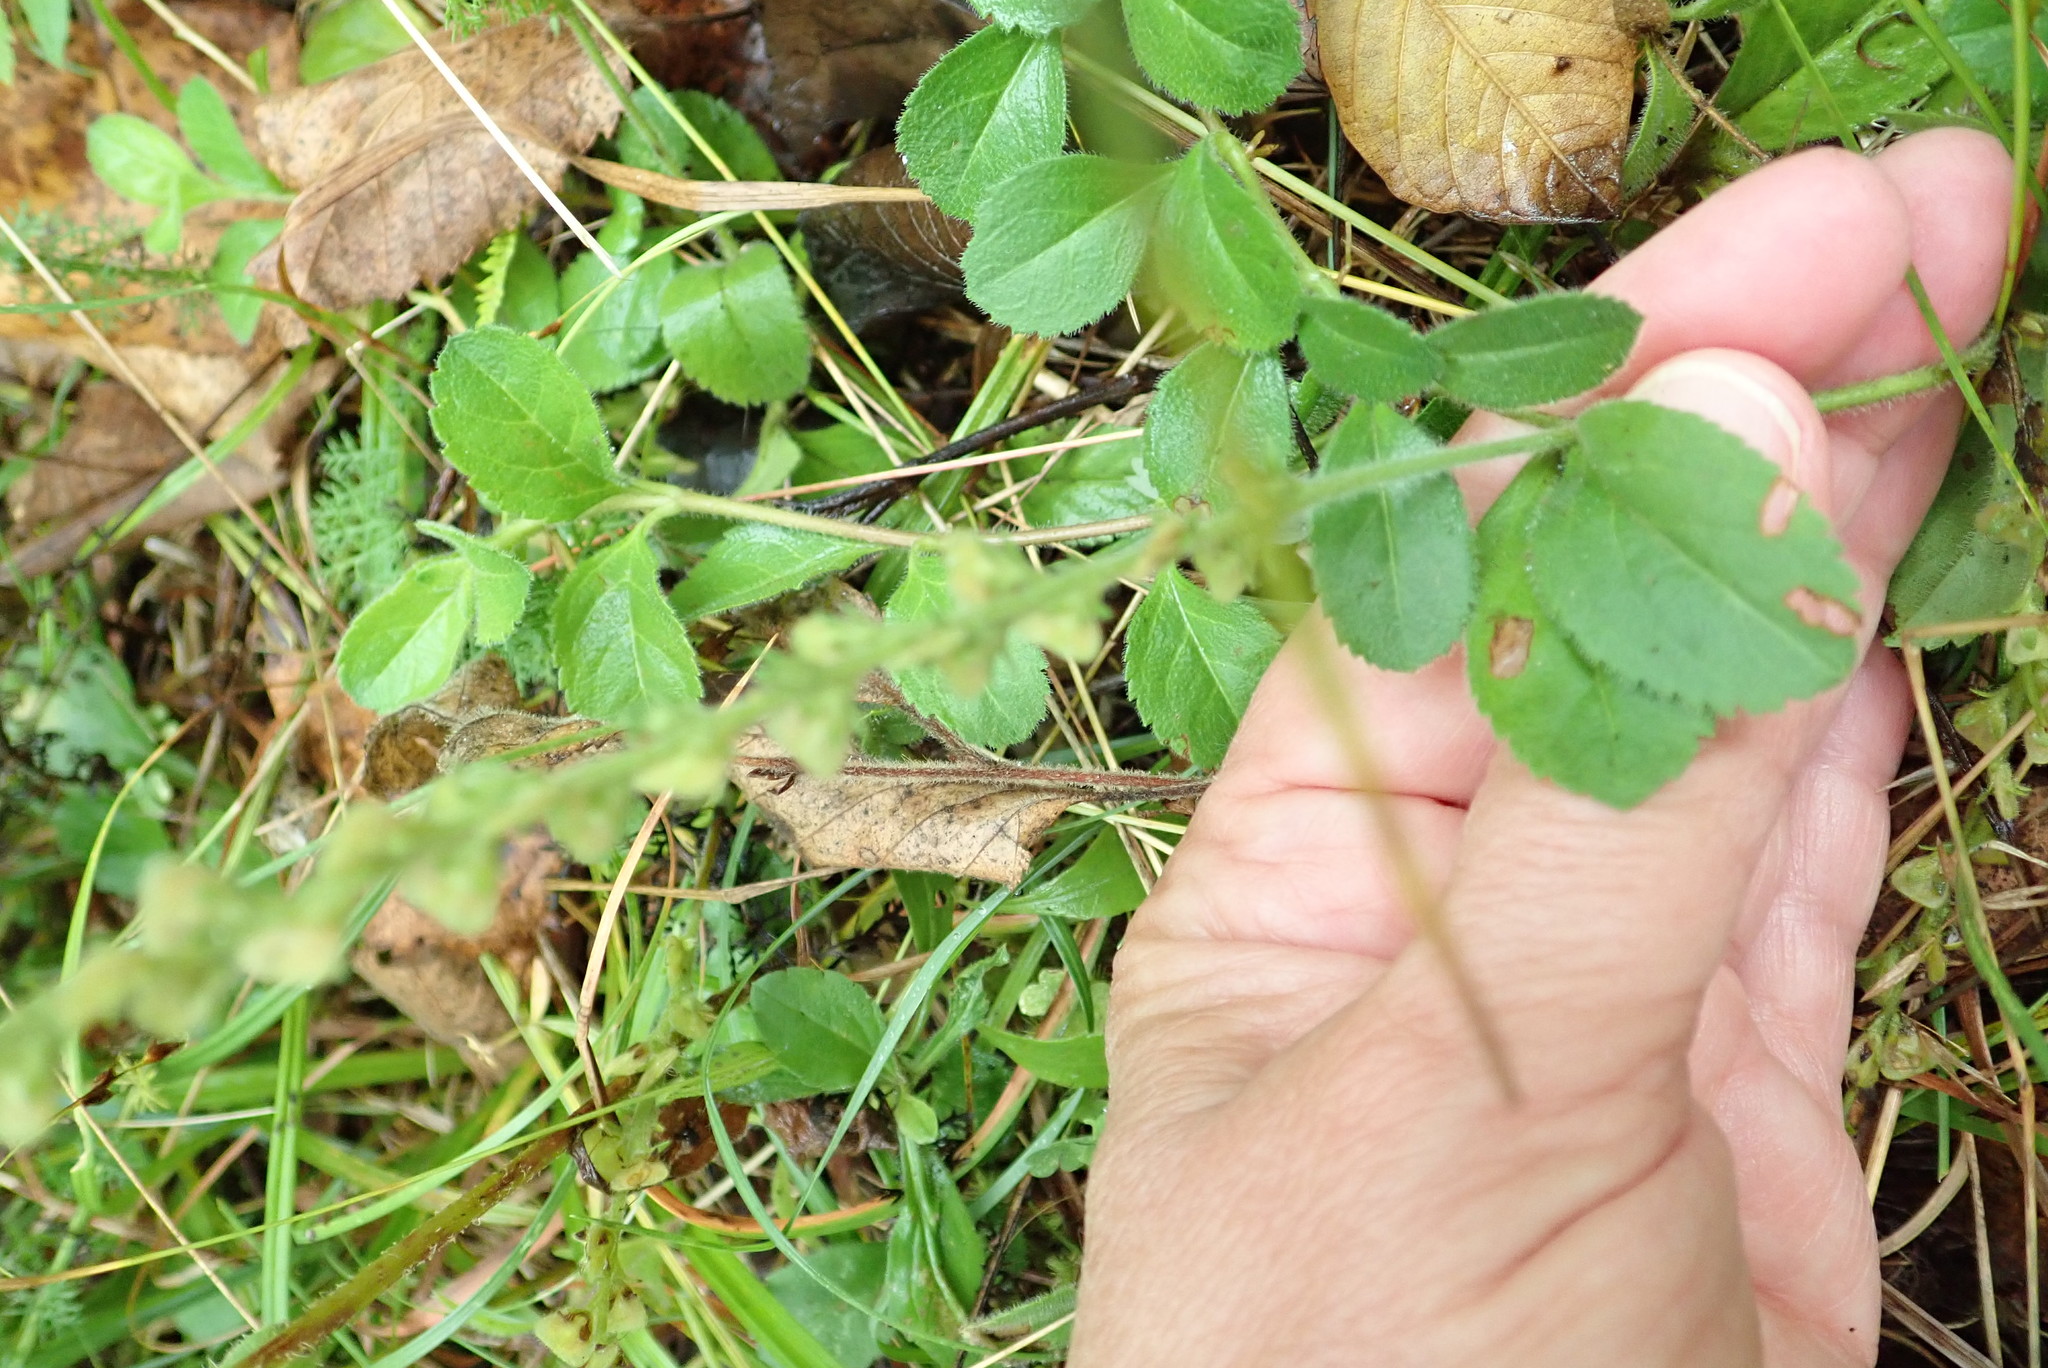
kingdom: Plantae
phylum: Tracheophyta
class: Magnoliopsida
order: Lamiales
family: Plantaginaceae
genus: Veronica
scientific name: Veronica officinalis
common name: Common speedwell
